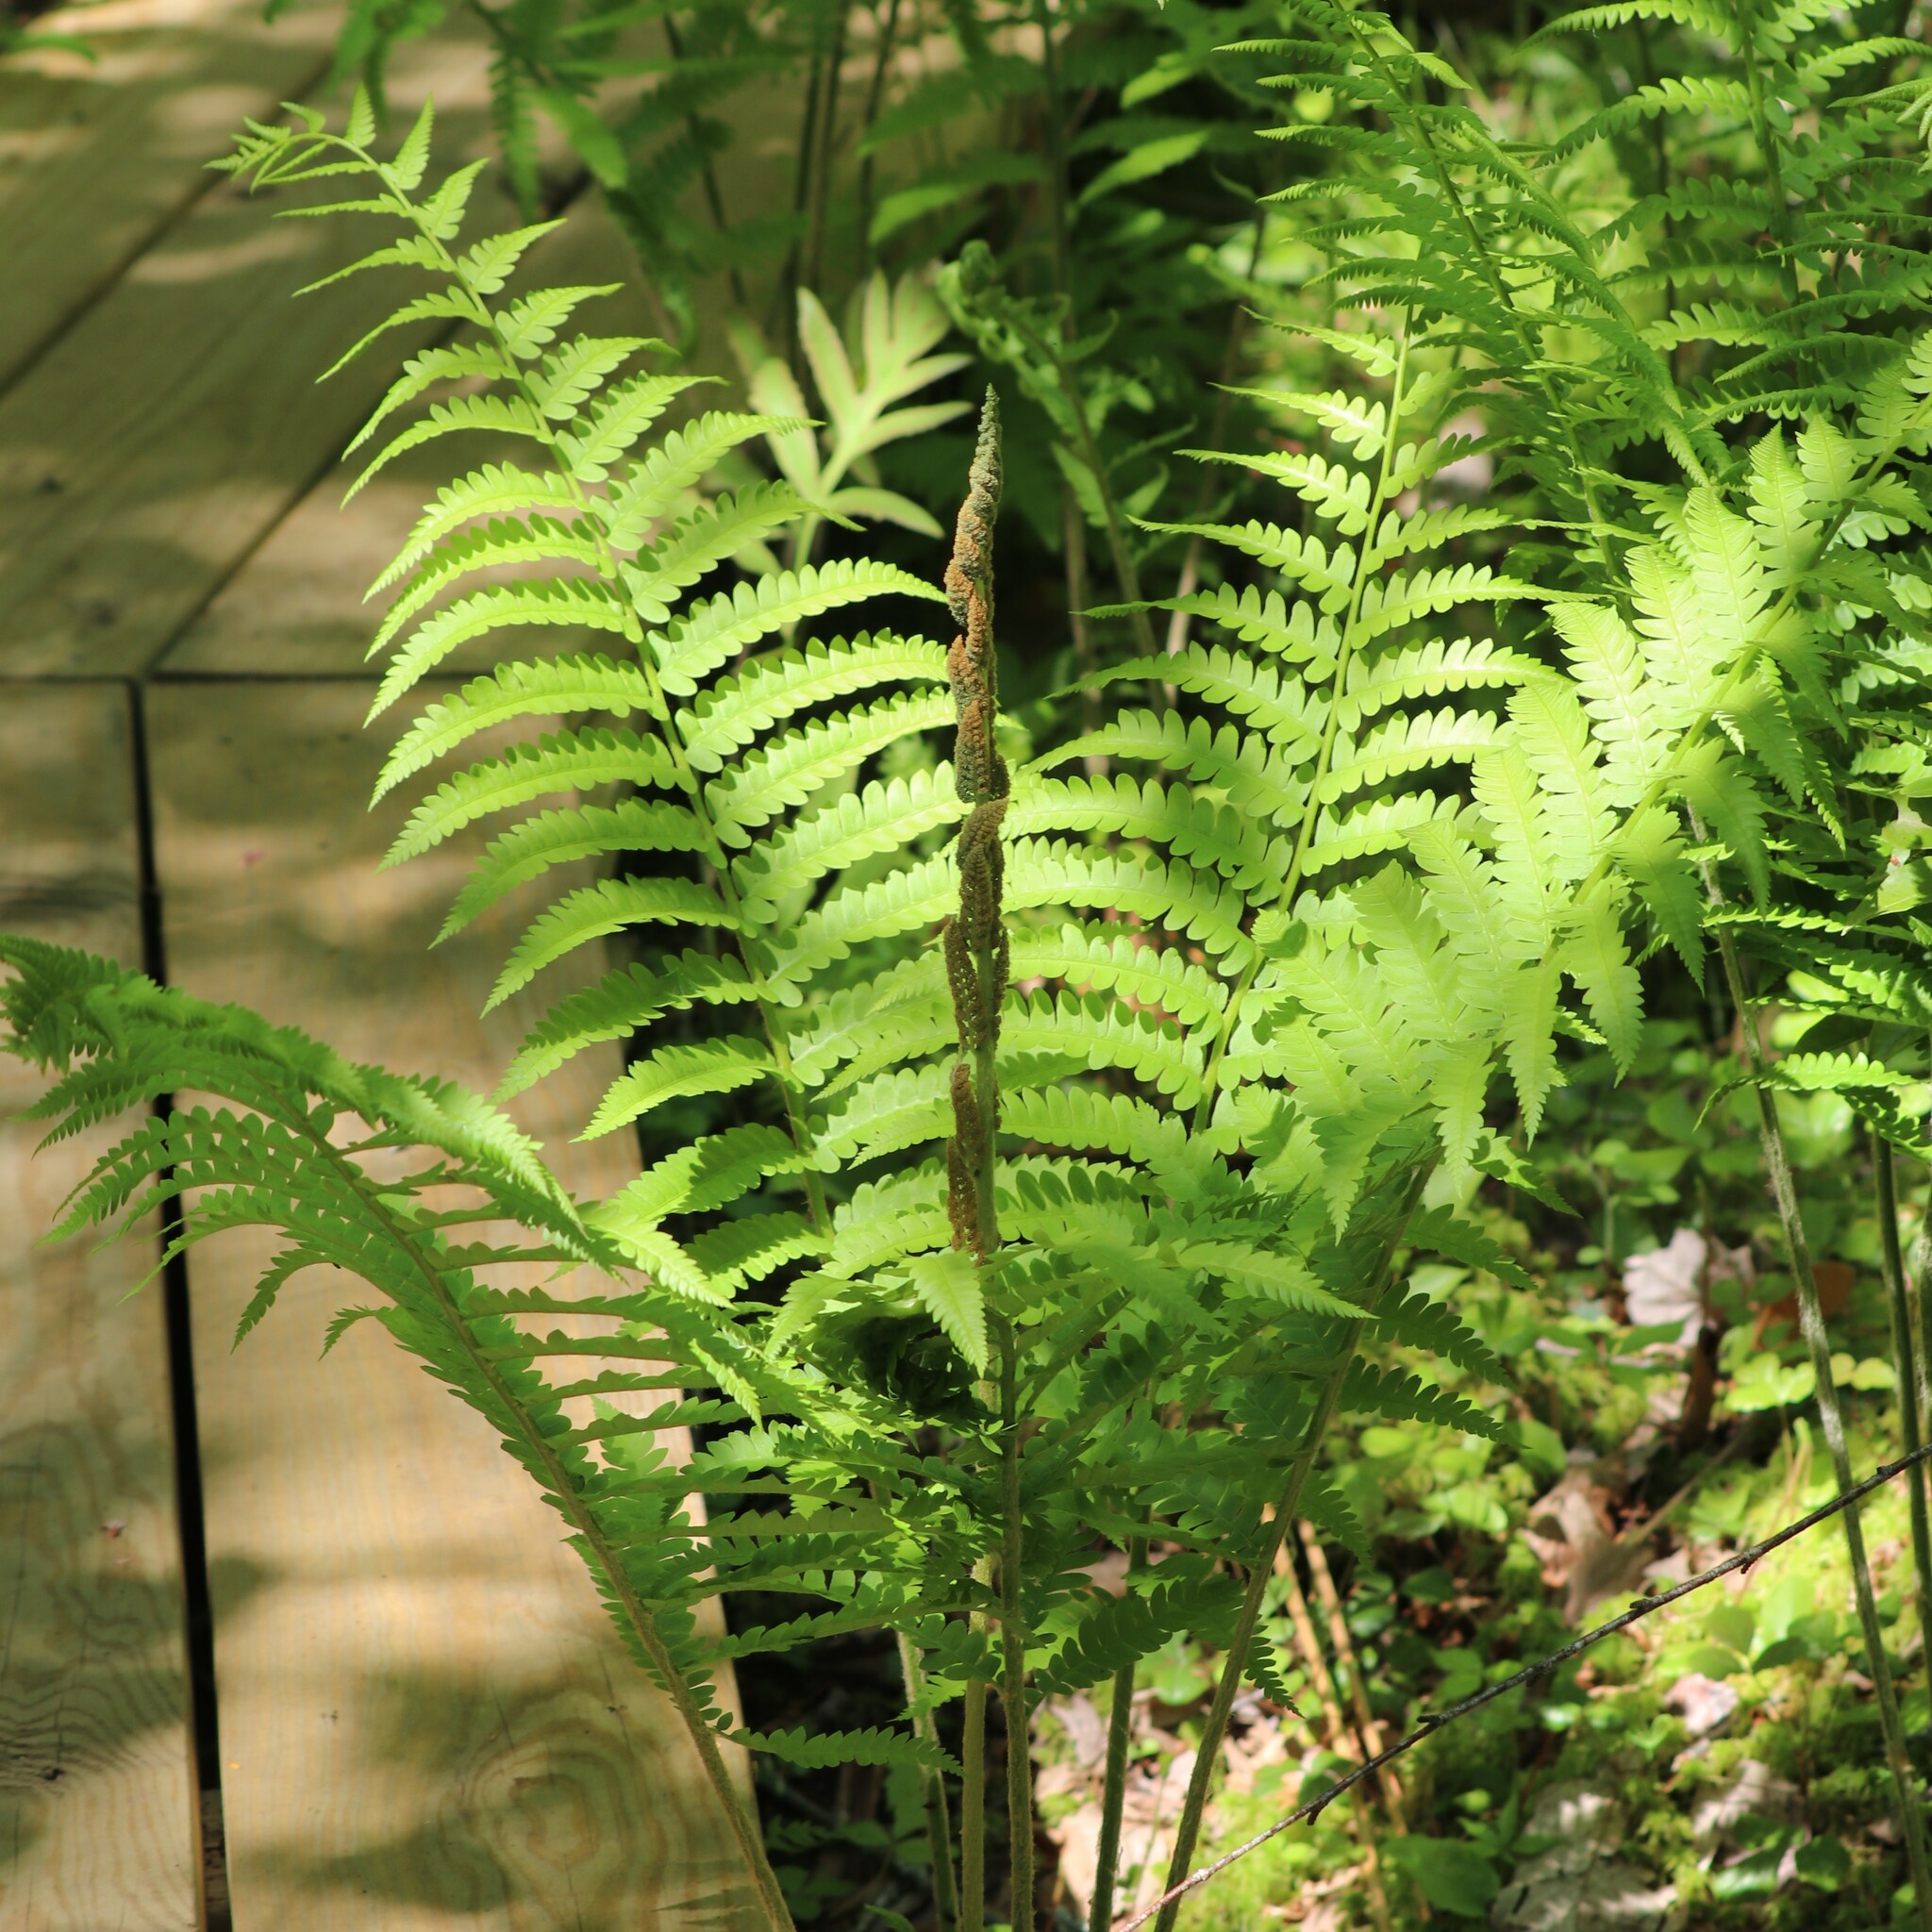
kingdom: Plantae
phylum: Tracheophyta
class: Polypodiopsida
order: Osmundales
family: Osmundaceae
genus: Osmundastrum
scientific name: Osmundastrum cinnamomeum
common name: Cinnamon fern
